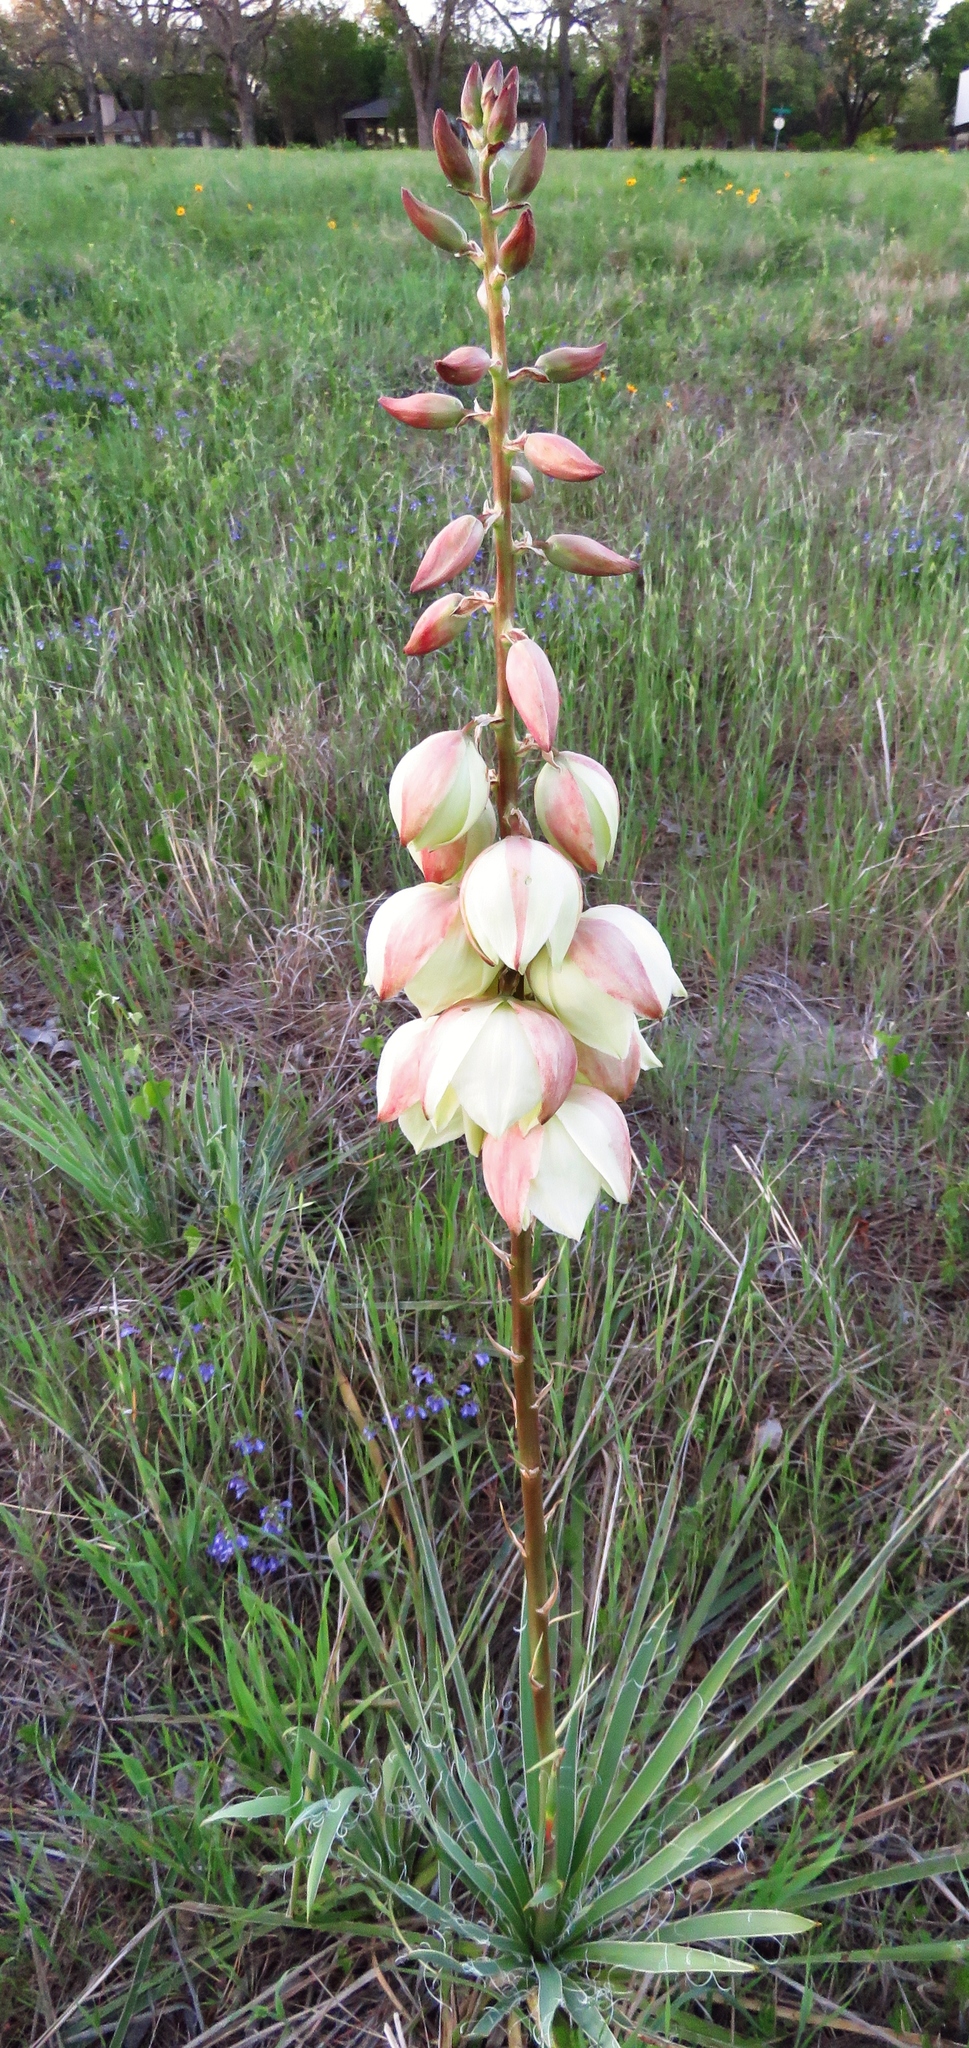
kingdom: Plantae
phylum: Tracheophyta
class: Liliopsida
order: Asparagales
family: Asparagaceae
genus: Yucca
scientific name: Yucca arkansana
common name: Arkansas yucca
